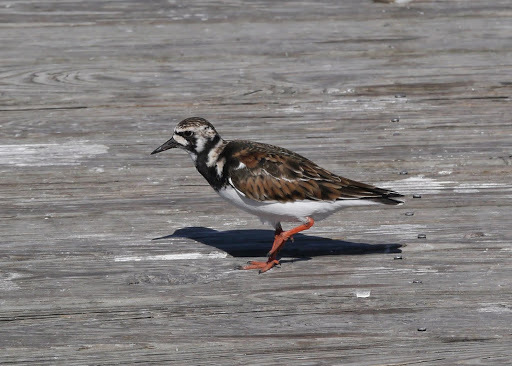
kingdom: Animalia
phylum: Chordata
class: Aves
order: Charadriiformes
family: Scolopacidae
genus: Arenaria
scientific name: Arenaria interpres
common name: Ruddy turnstone
